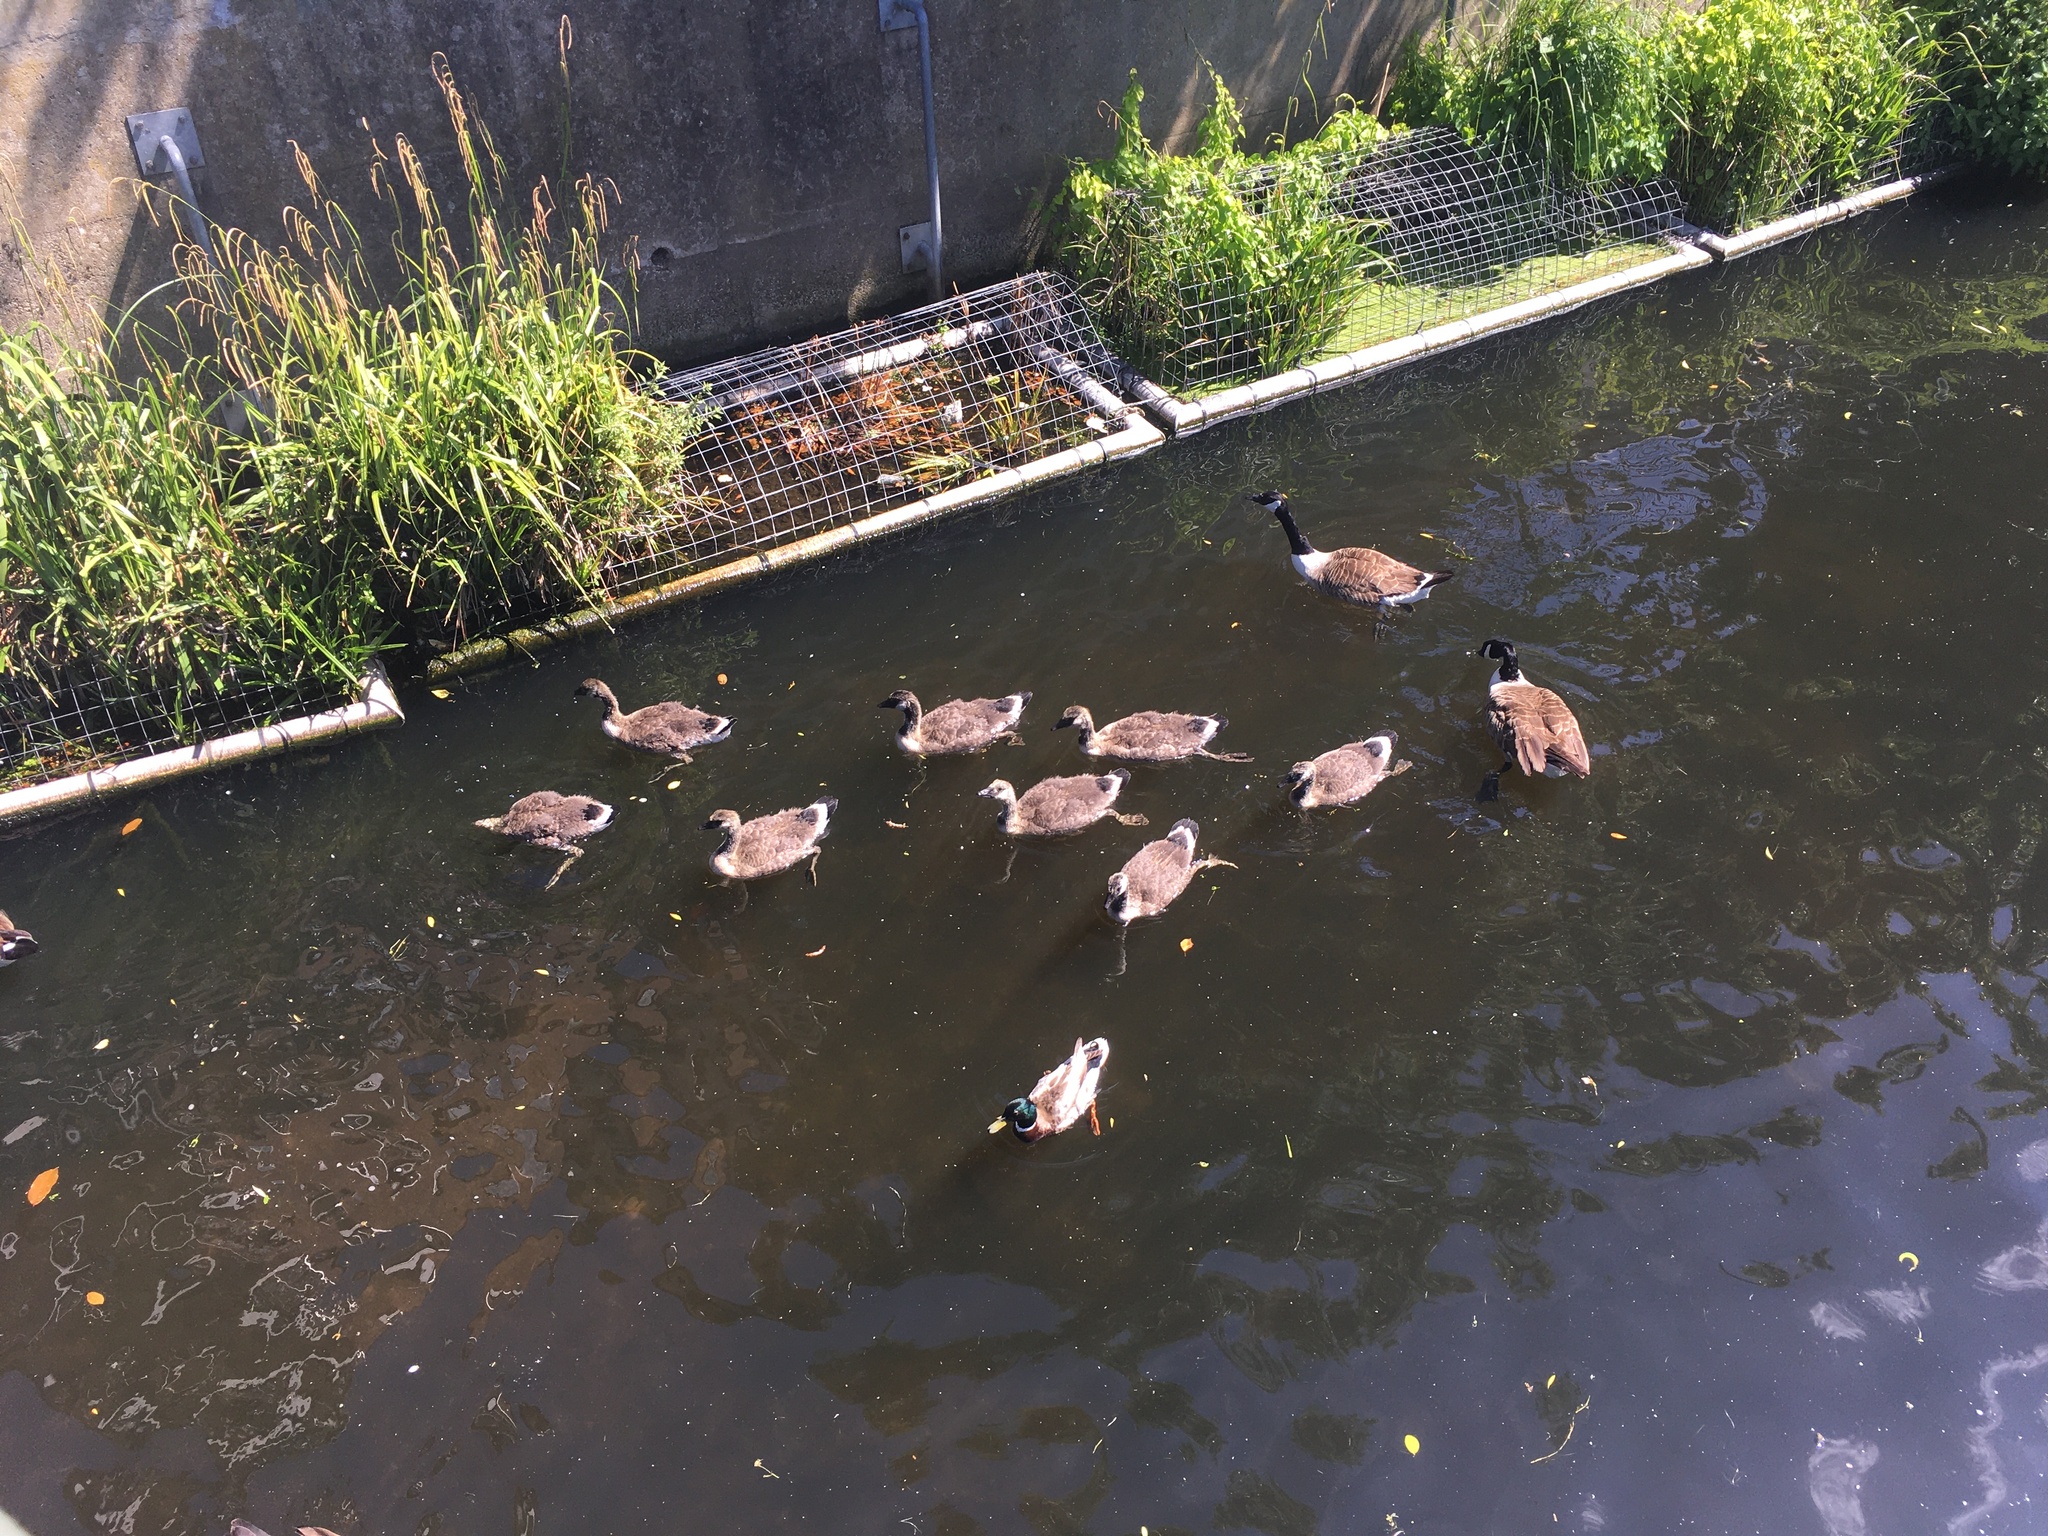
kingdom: Animalia
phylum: Chordata
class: Aves
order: Anseriformes
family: Anatidae
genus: Branta
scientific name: Branta canadensis
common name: Canada goose
